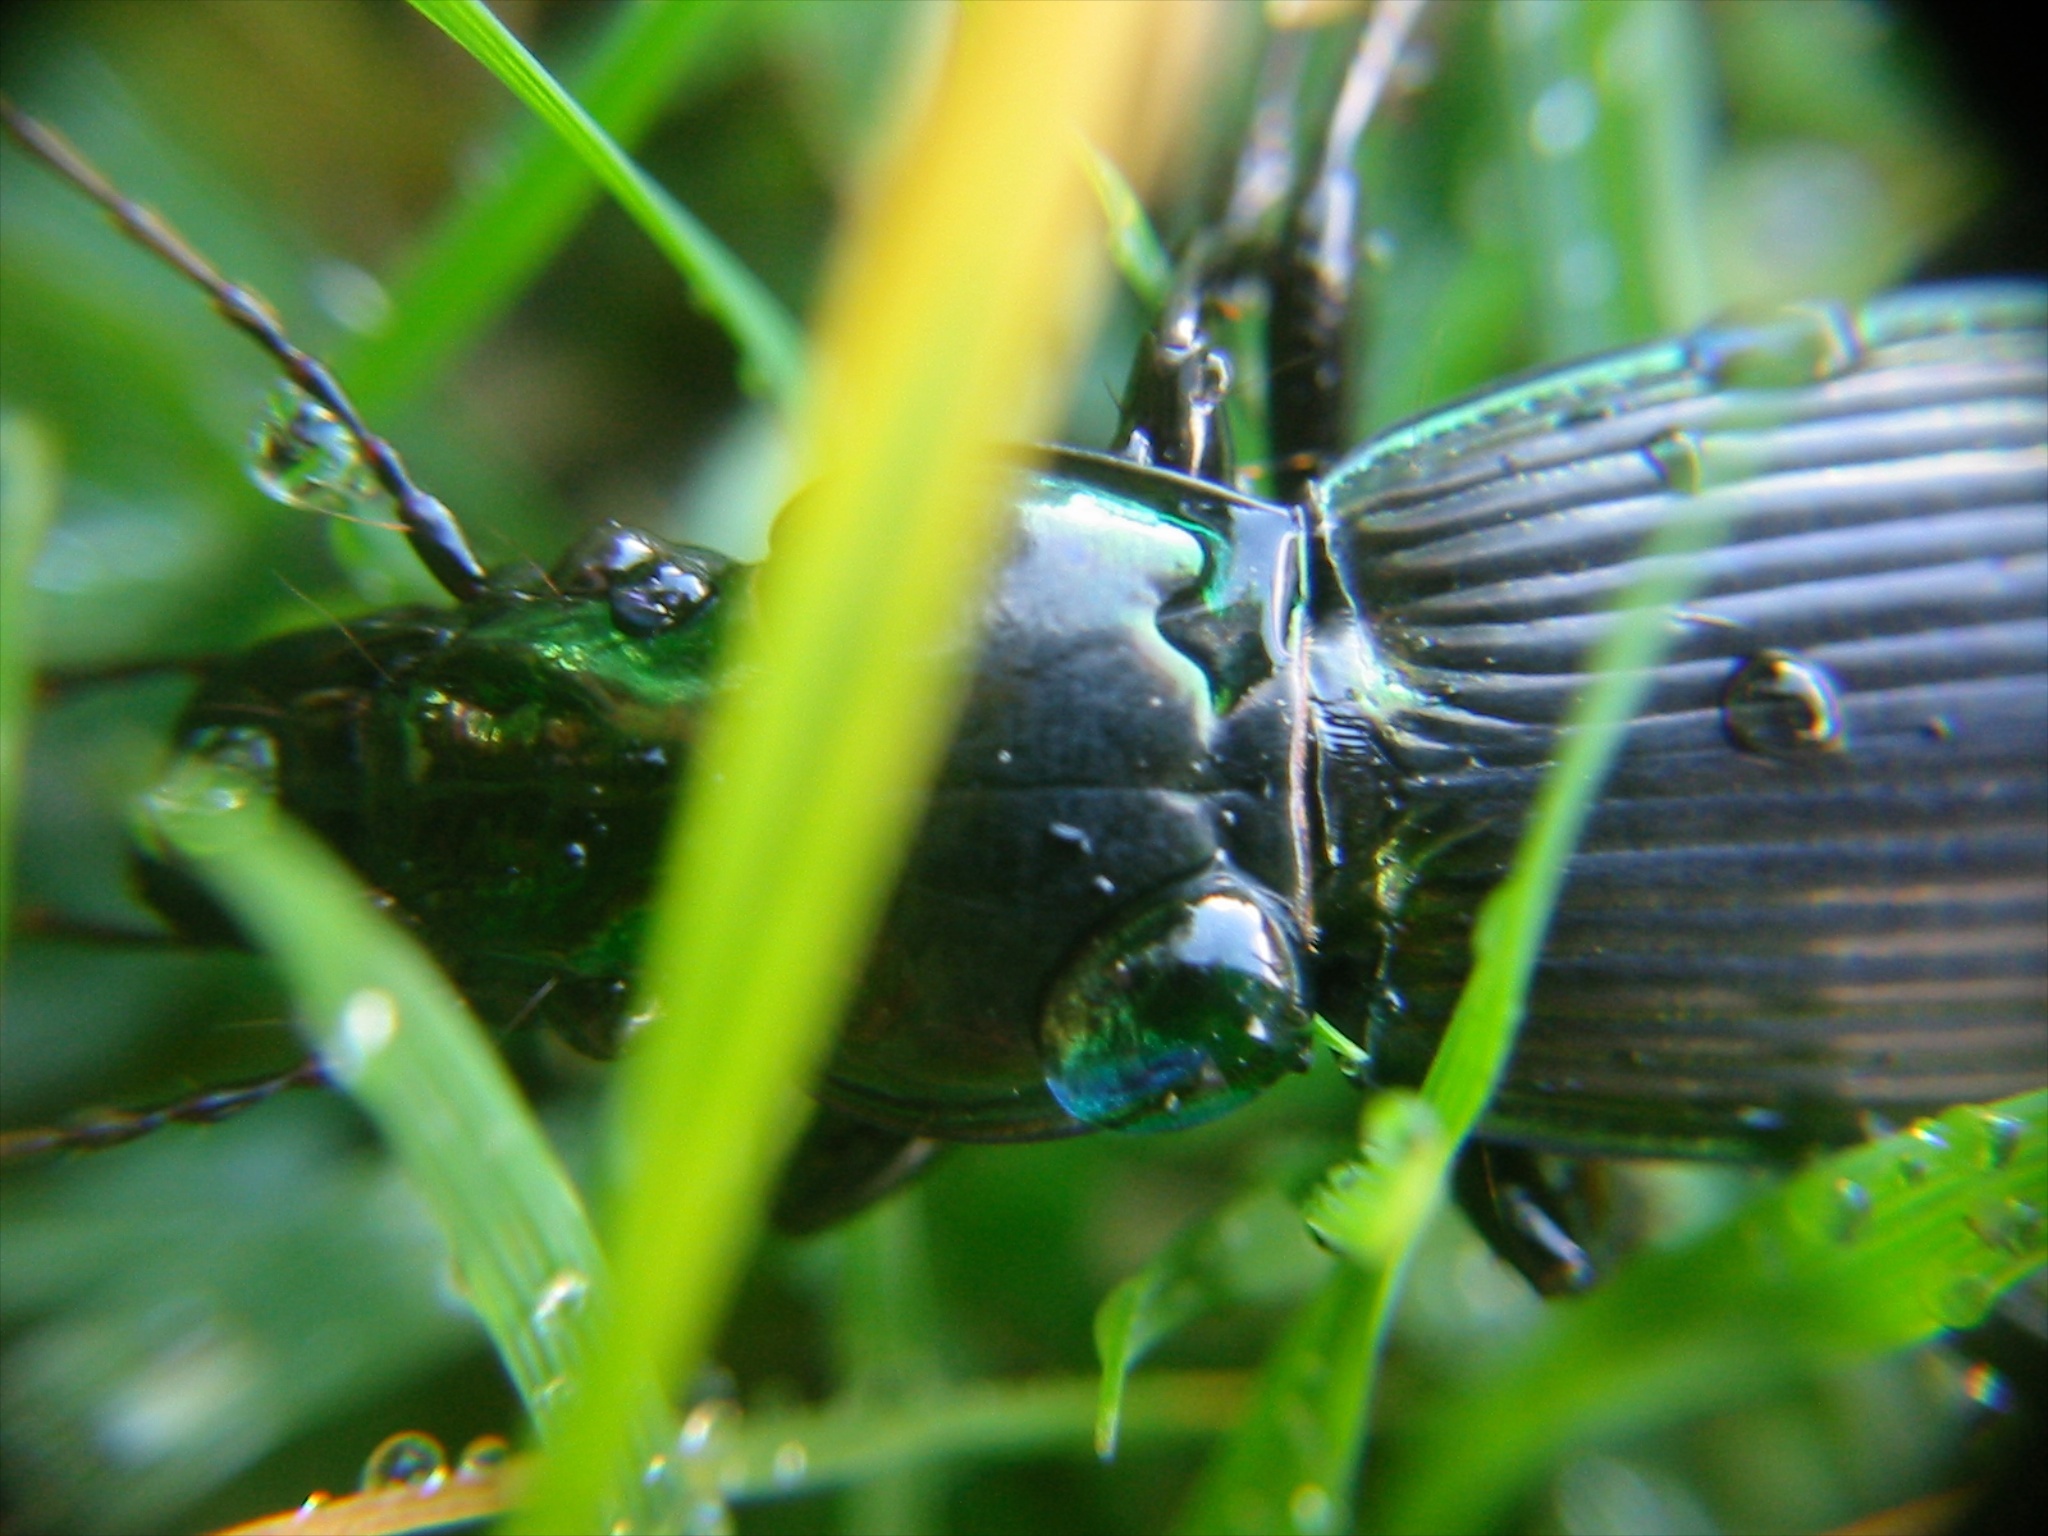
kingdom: Animalia
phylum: Arthropoda
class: Insecta
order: Coleoptera
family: Carabidae
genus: Megadromus
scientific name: Megadromus antarcticus
